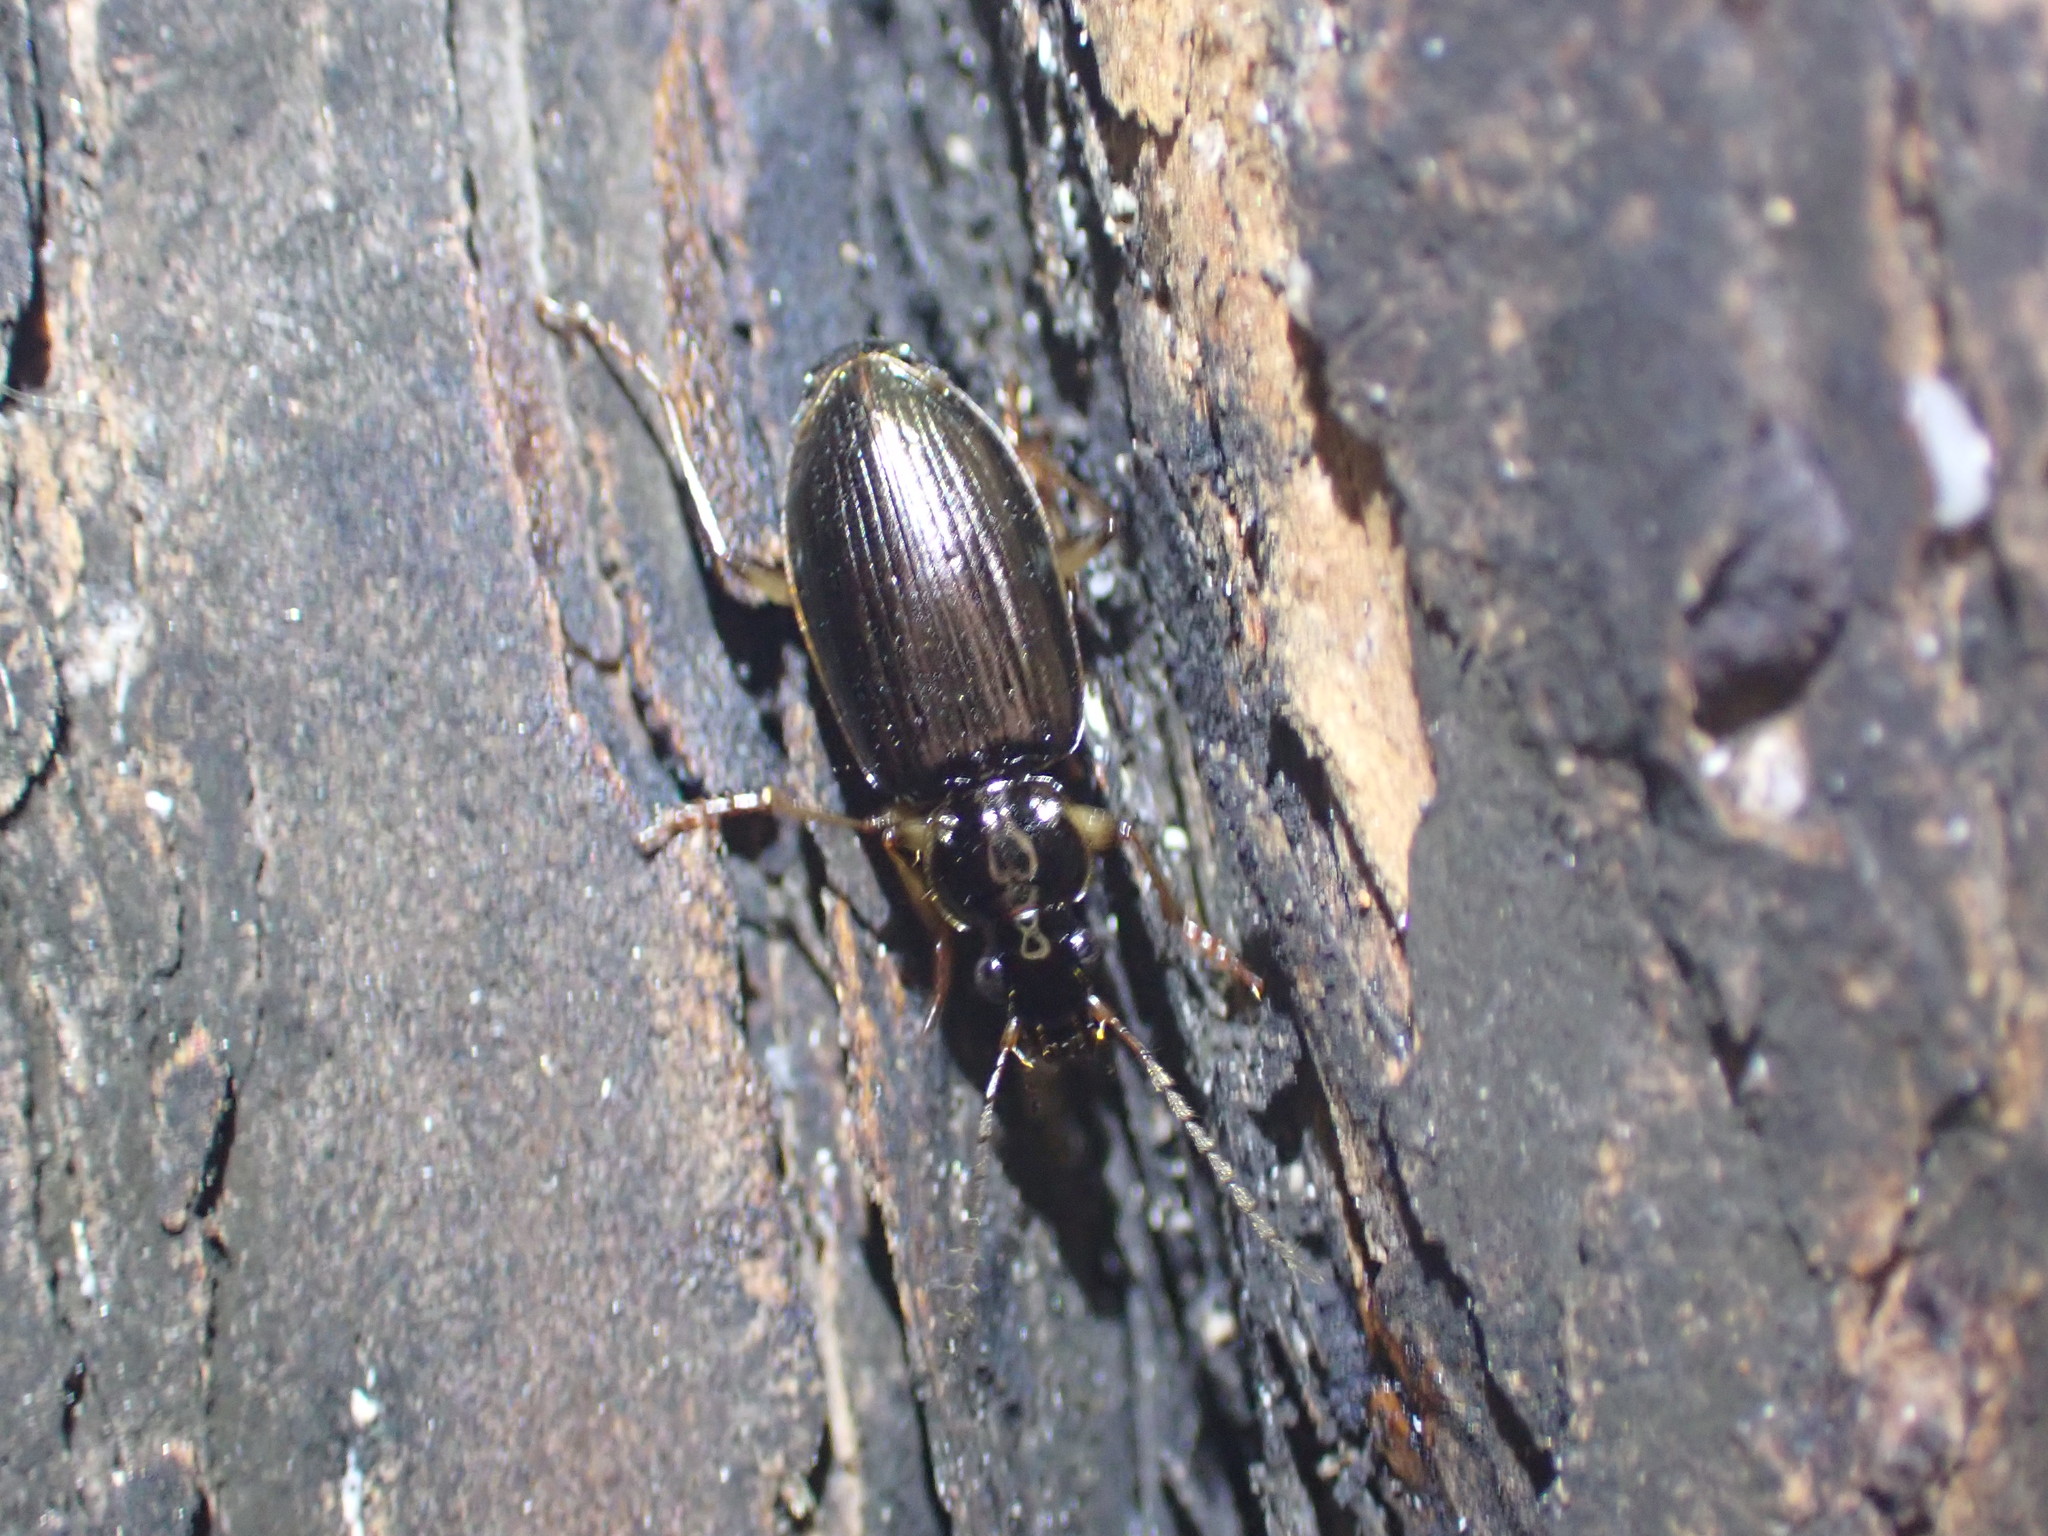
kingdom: Animalia
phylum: Arthropoda
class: Insecta
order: Coleoptera
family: Carabidae
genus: Notagonum
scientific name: Notagonum submetallicum
